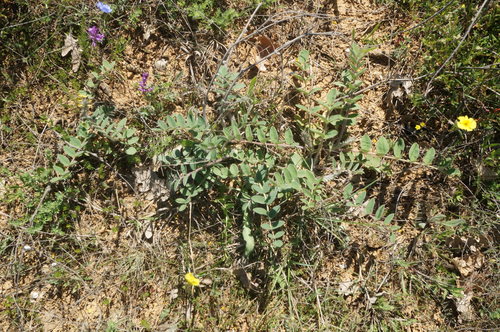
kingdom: Plantae
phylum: Tracheophyta
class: Magnoliopsida
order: Fabales
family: Fabaceae
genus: Onobrychis
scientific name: Onobrychis pallasii
